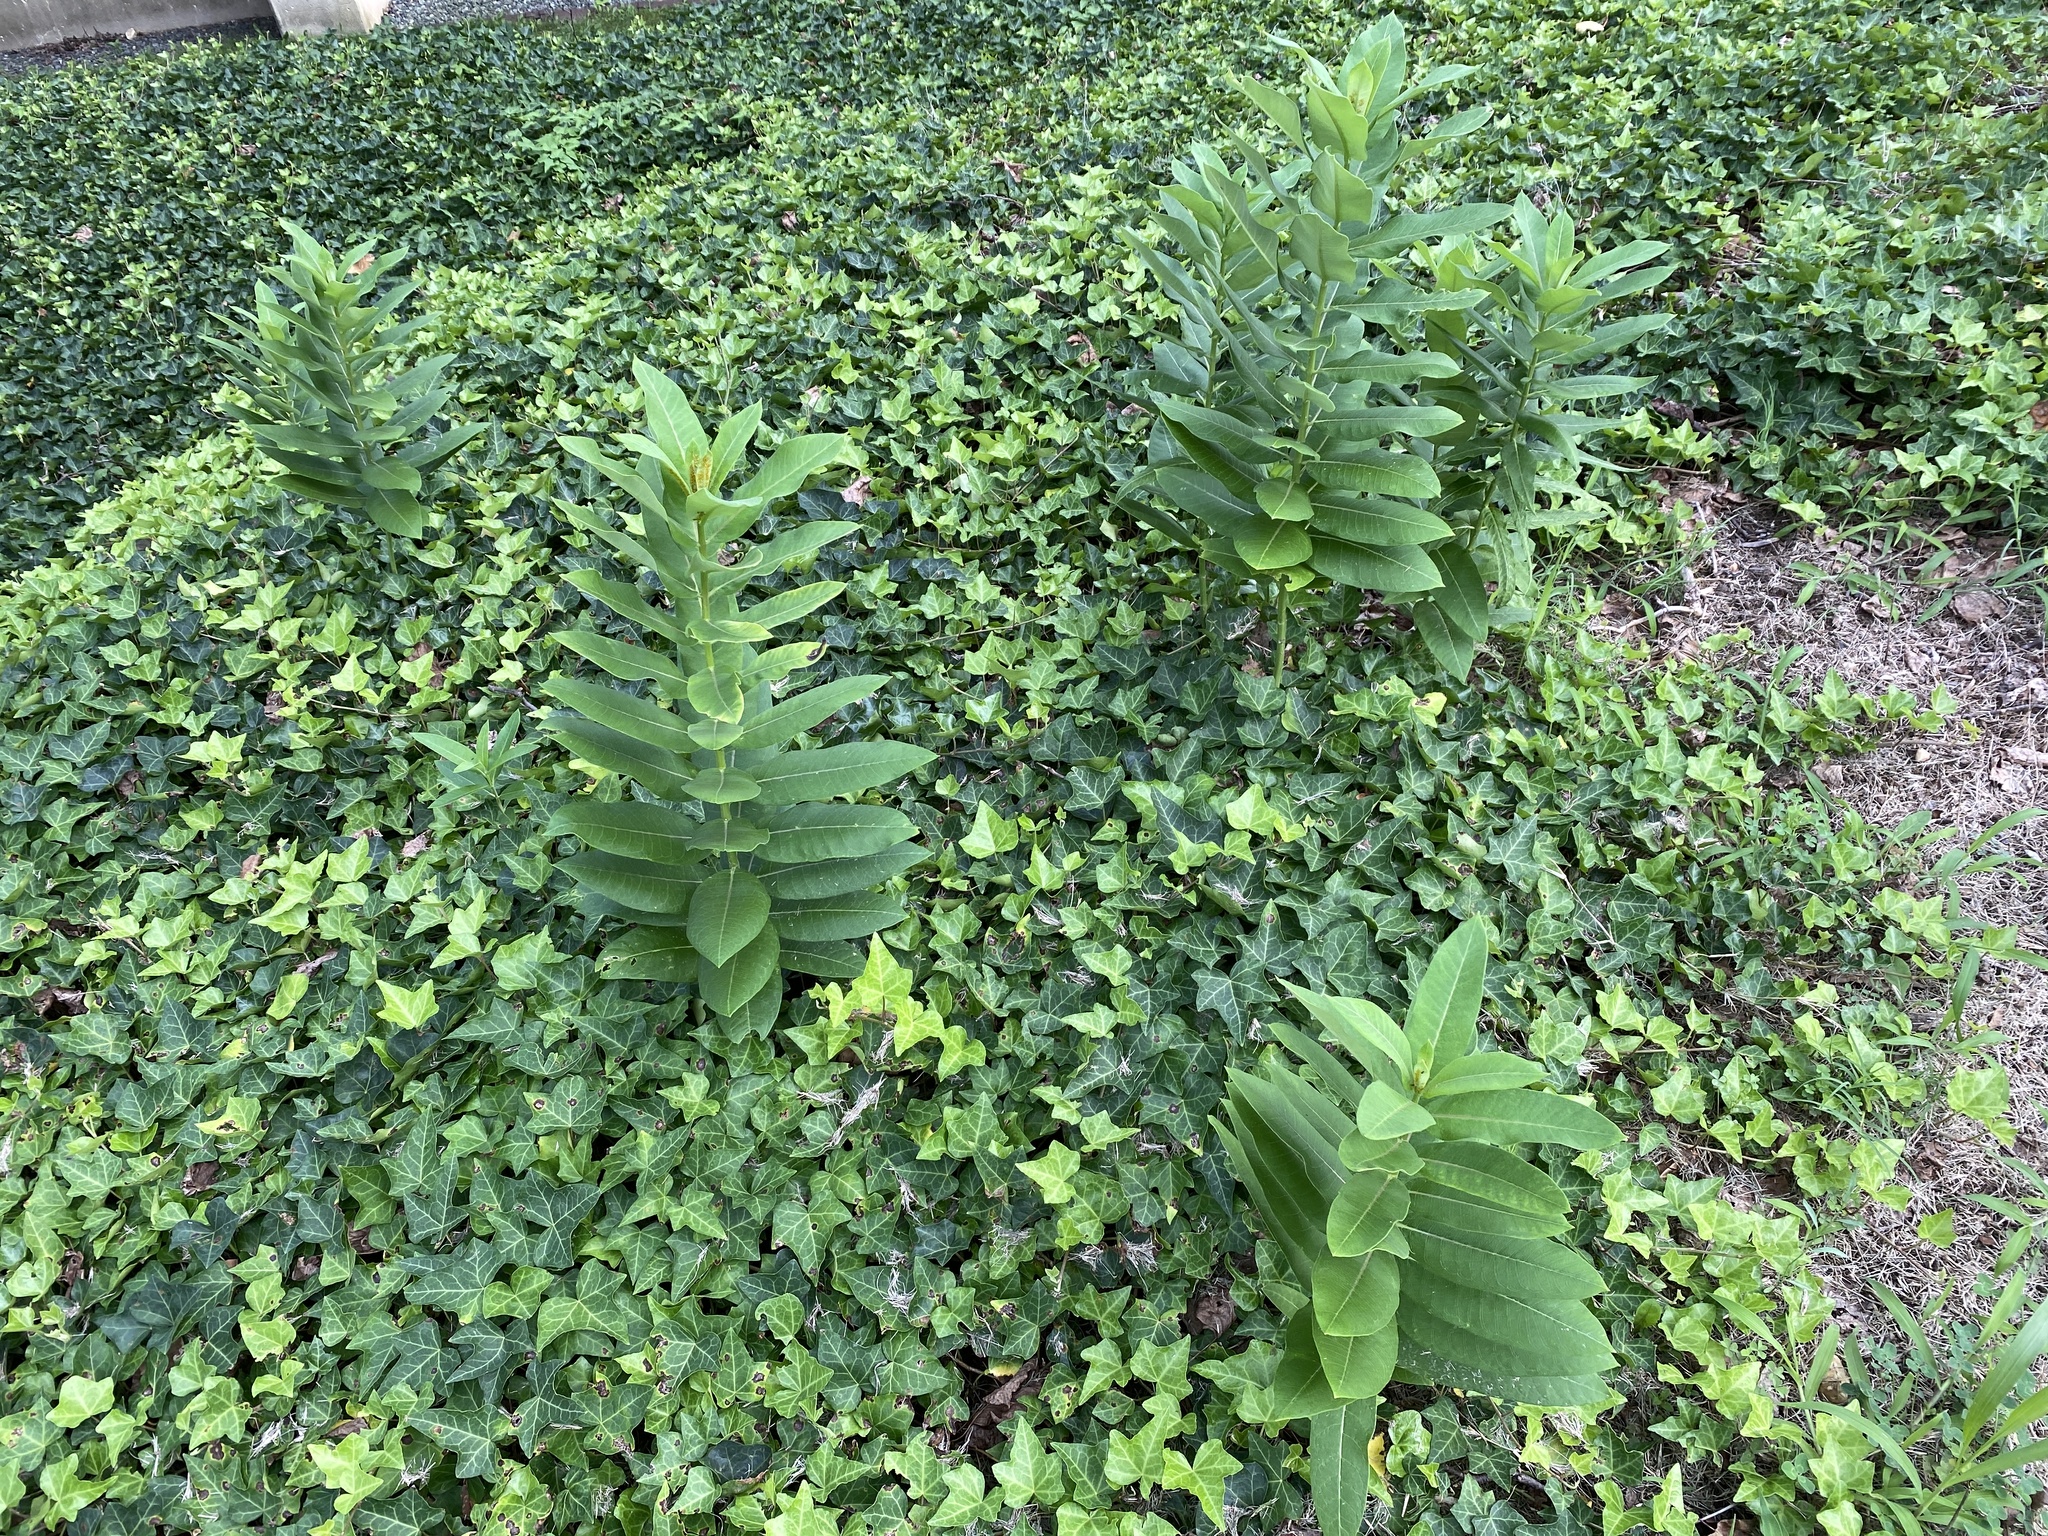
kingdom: Plantae
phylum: Tracheophyta
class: Magnoliopsida
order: Gentianales
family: Apocynaceae
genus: Asclepias
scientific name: Asclepias syriaca
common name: Common milkweed
